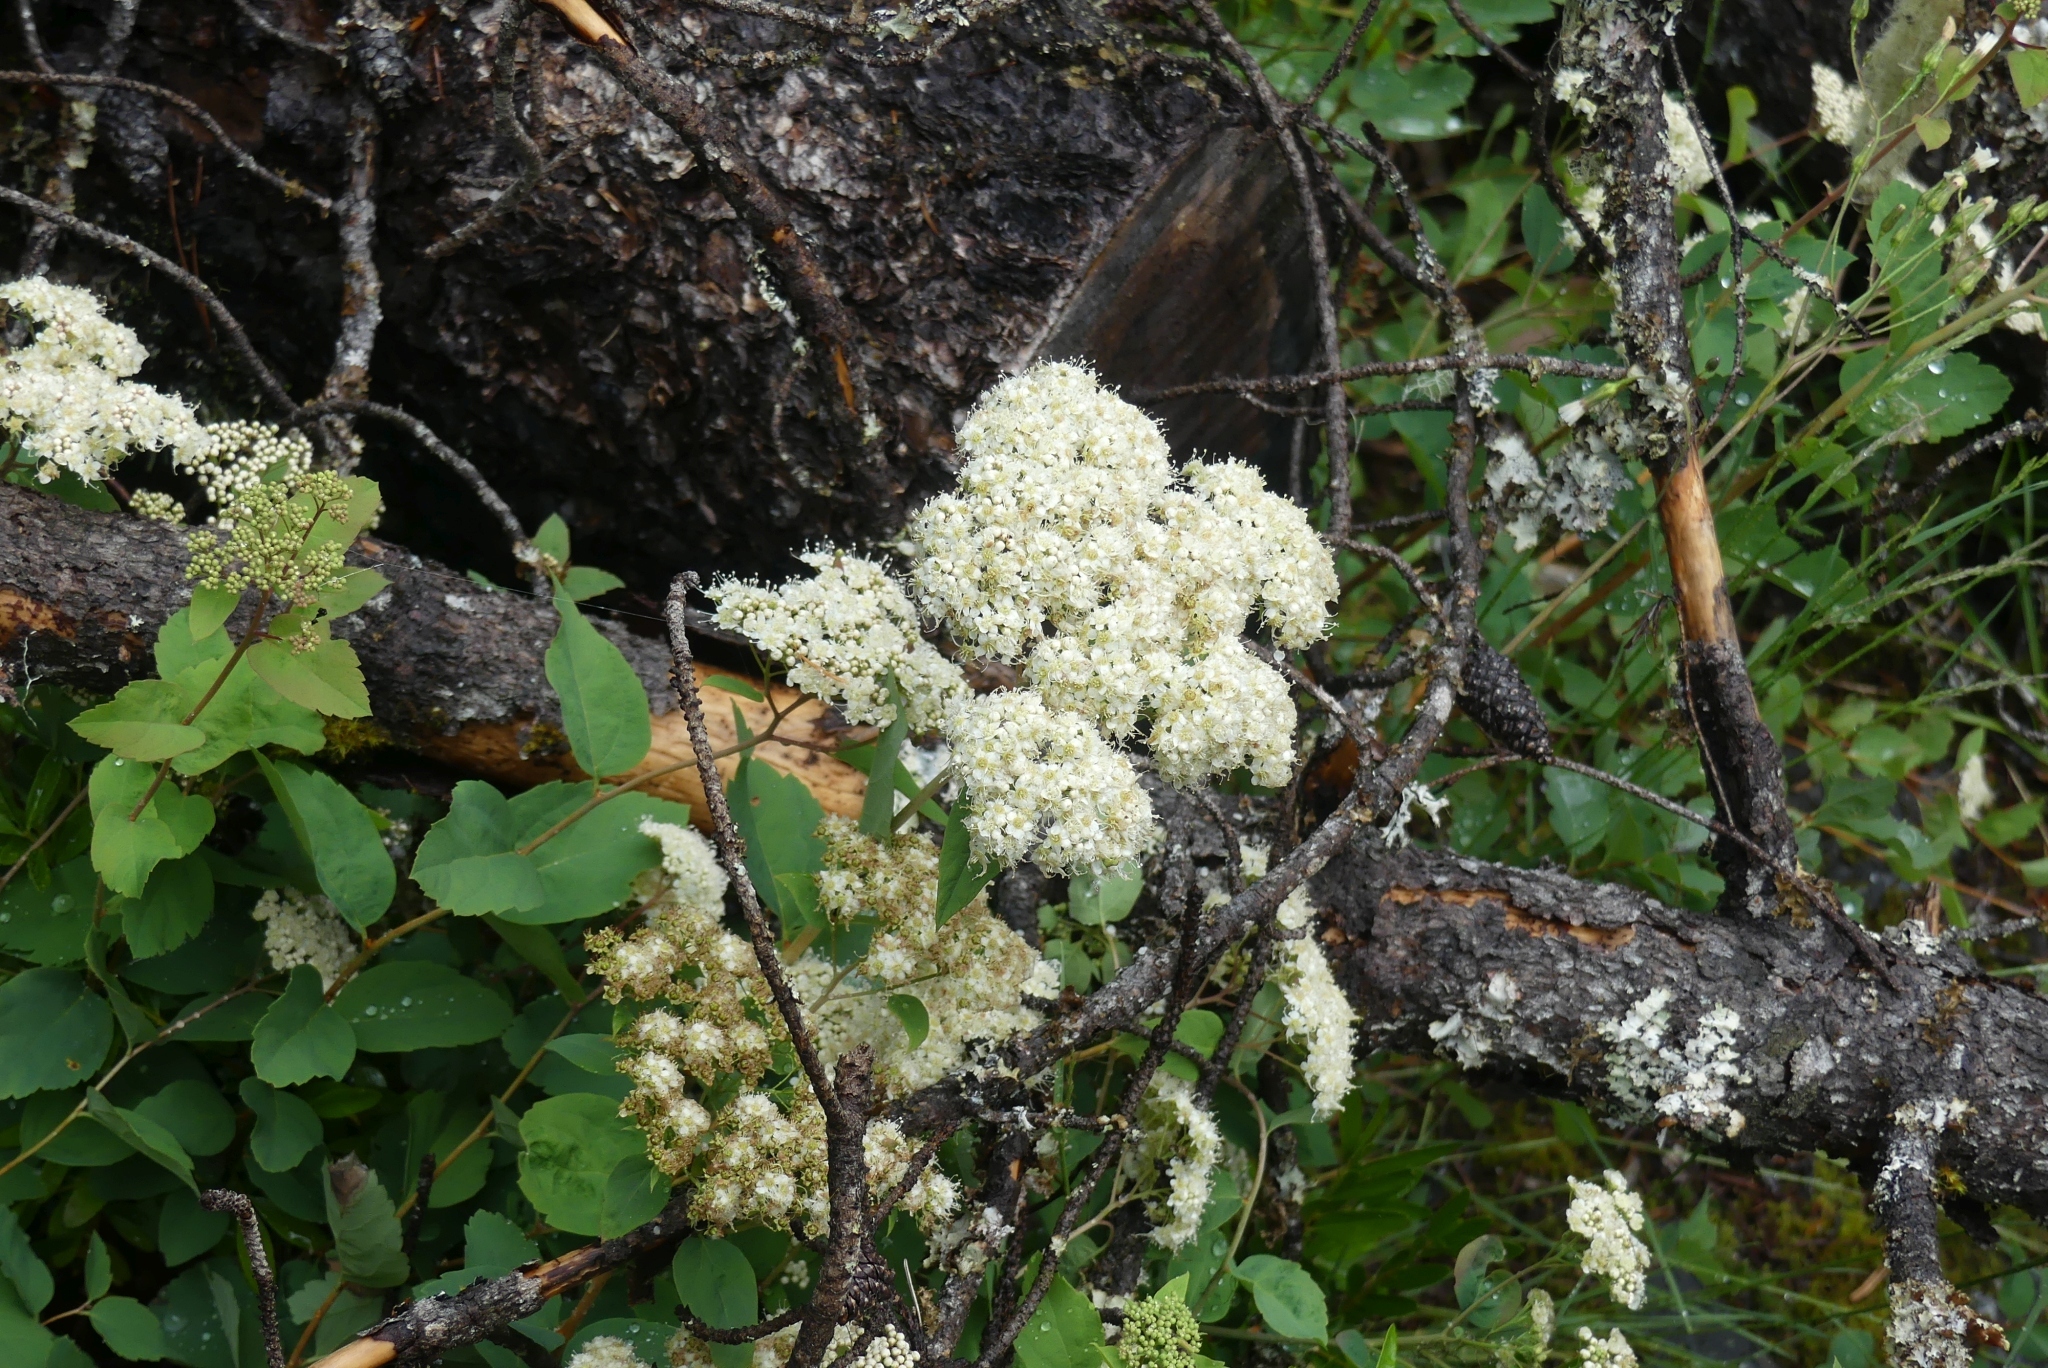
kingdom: Plantae
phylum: Tracheophyta
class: Magnoliopsida
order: Rosales
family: Rosaceae
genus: Spiraea
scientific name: Spiraea lucida
